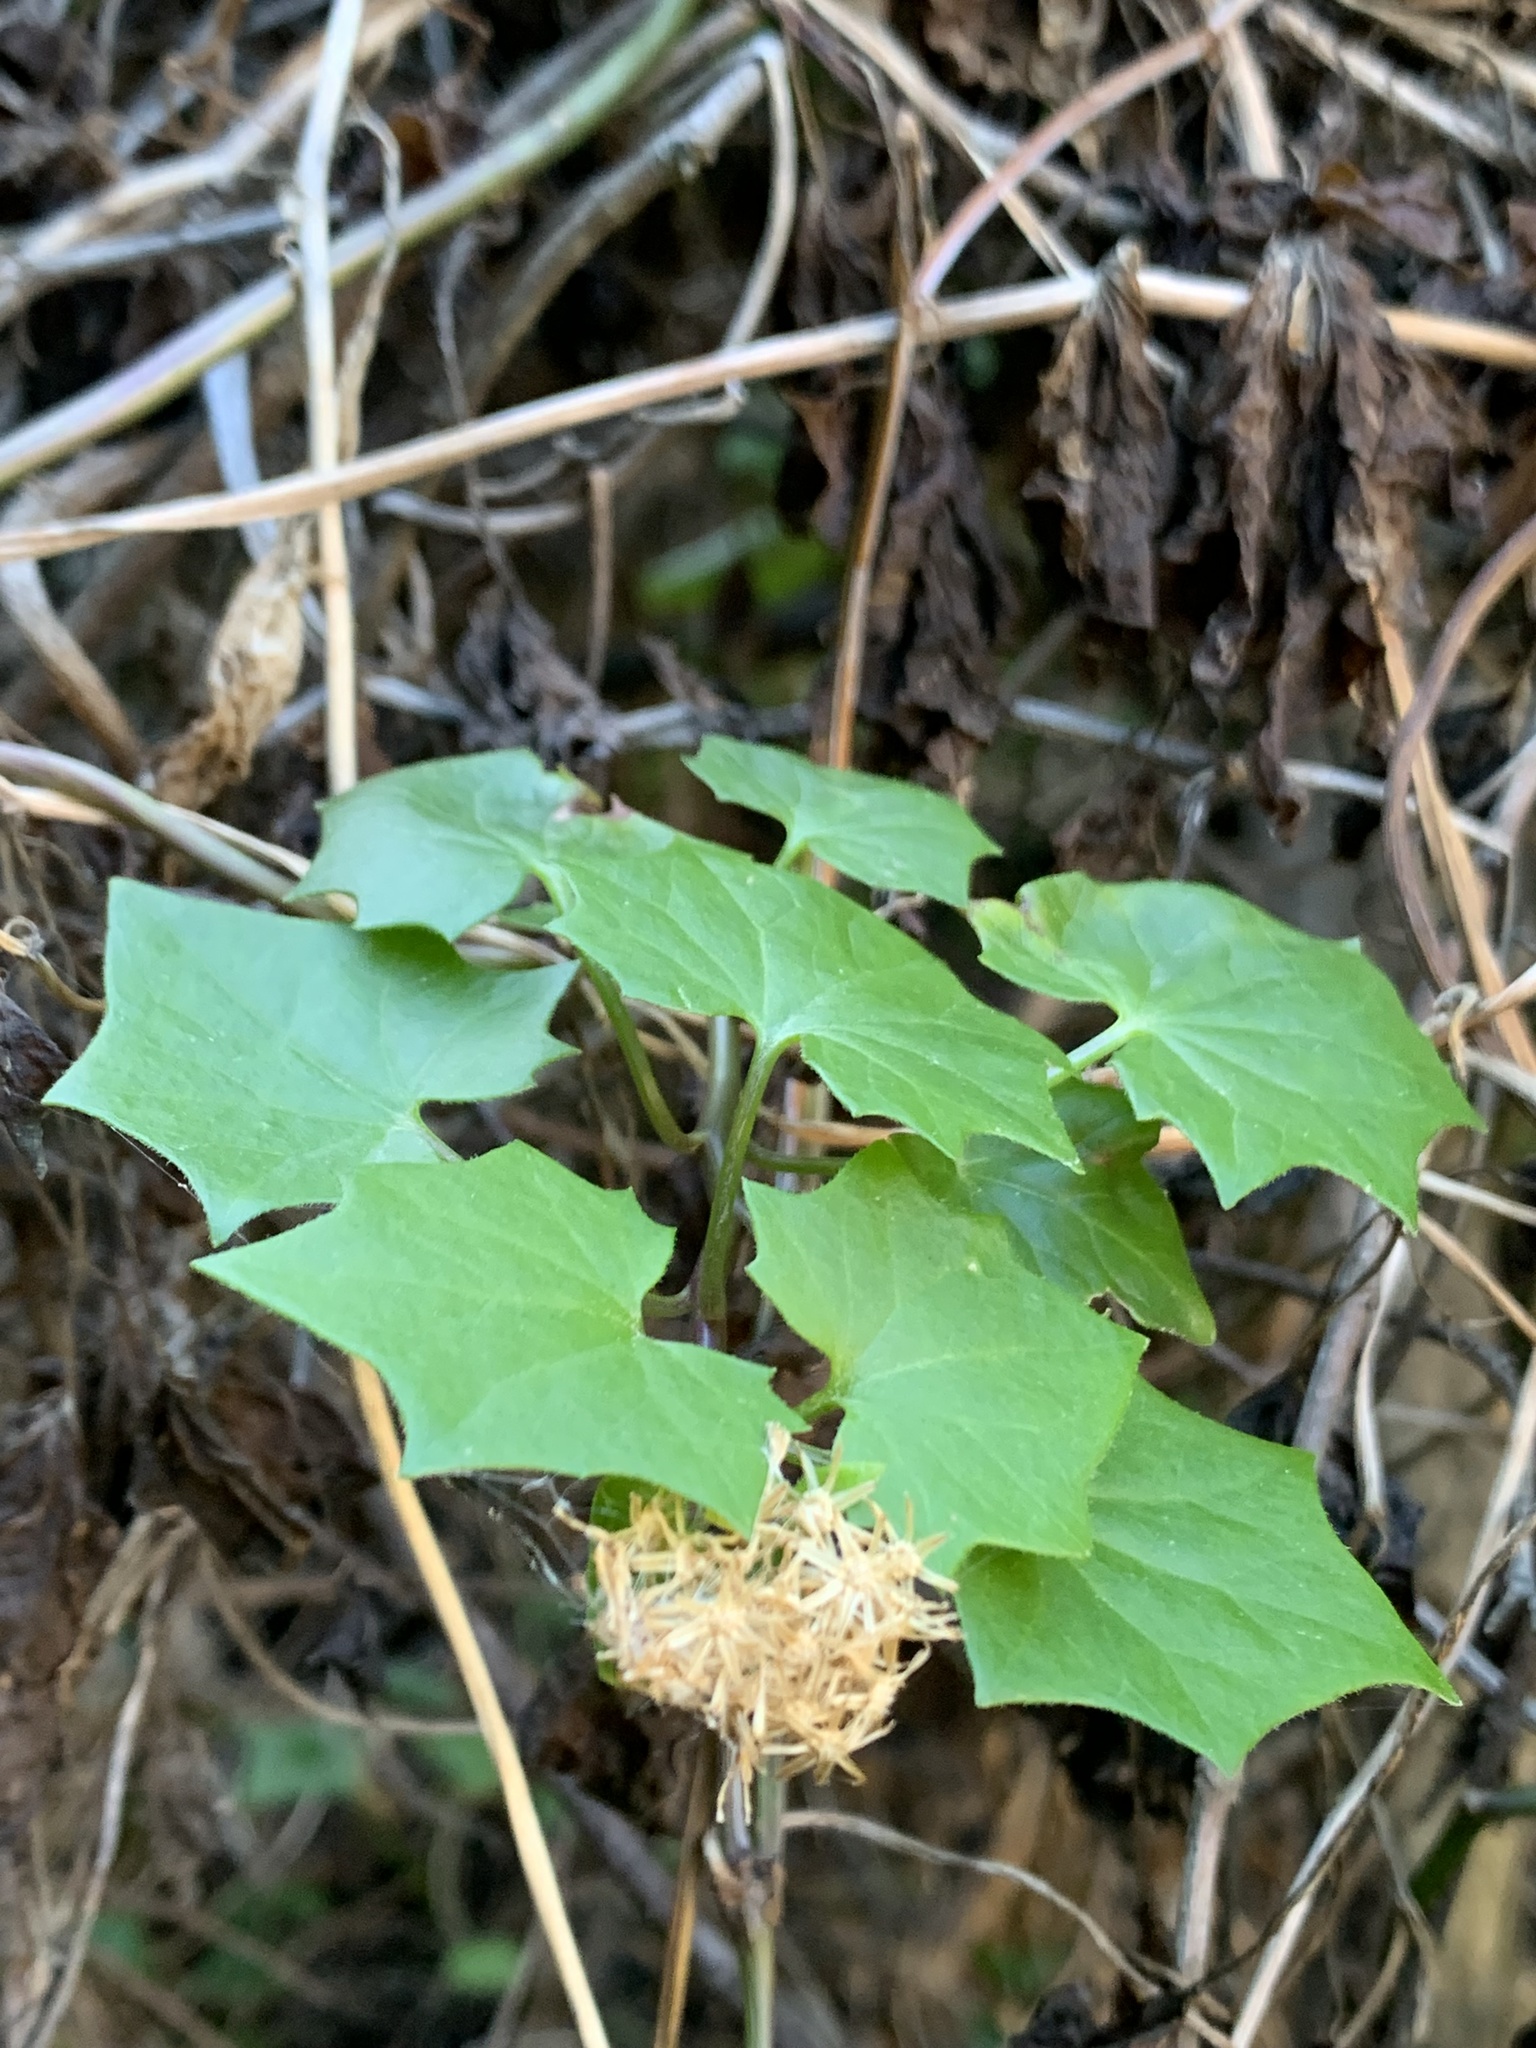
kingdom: Plantae
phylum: Tracheophyta
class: Magnoliopsida
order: Asterales
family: Asteraceae
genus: Delairea
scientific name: Delairea odorata
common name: Cape-ivy
